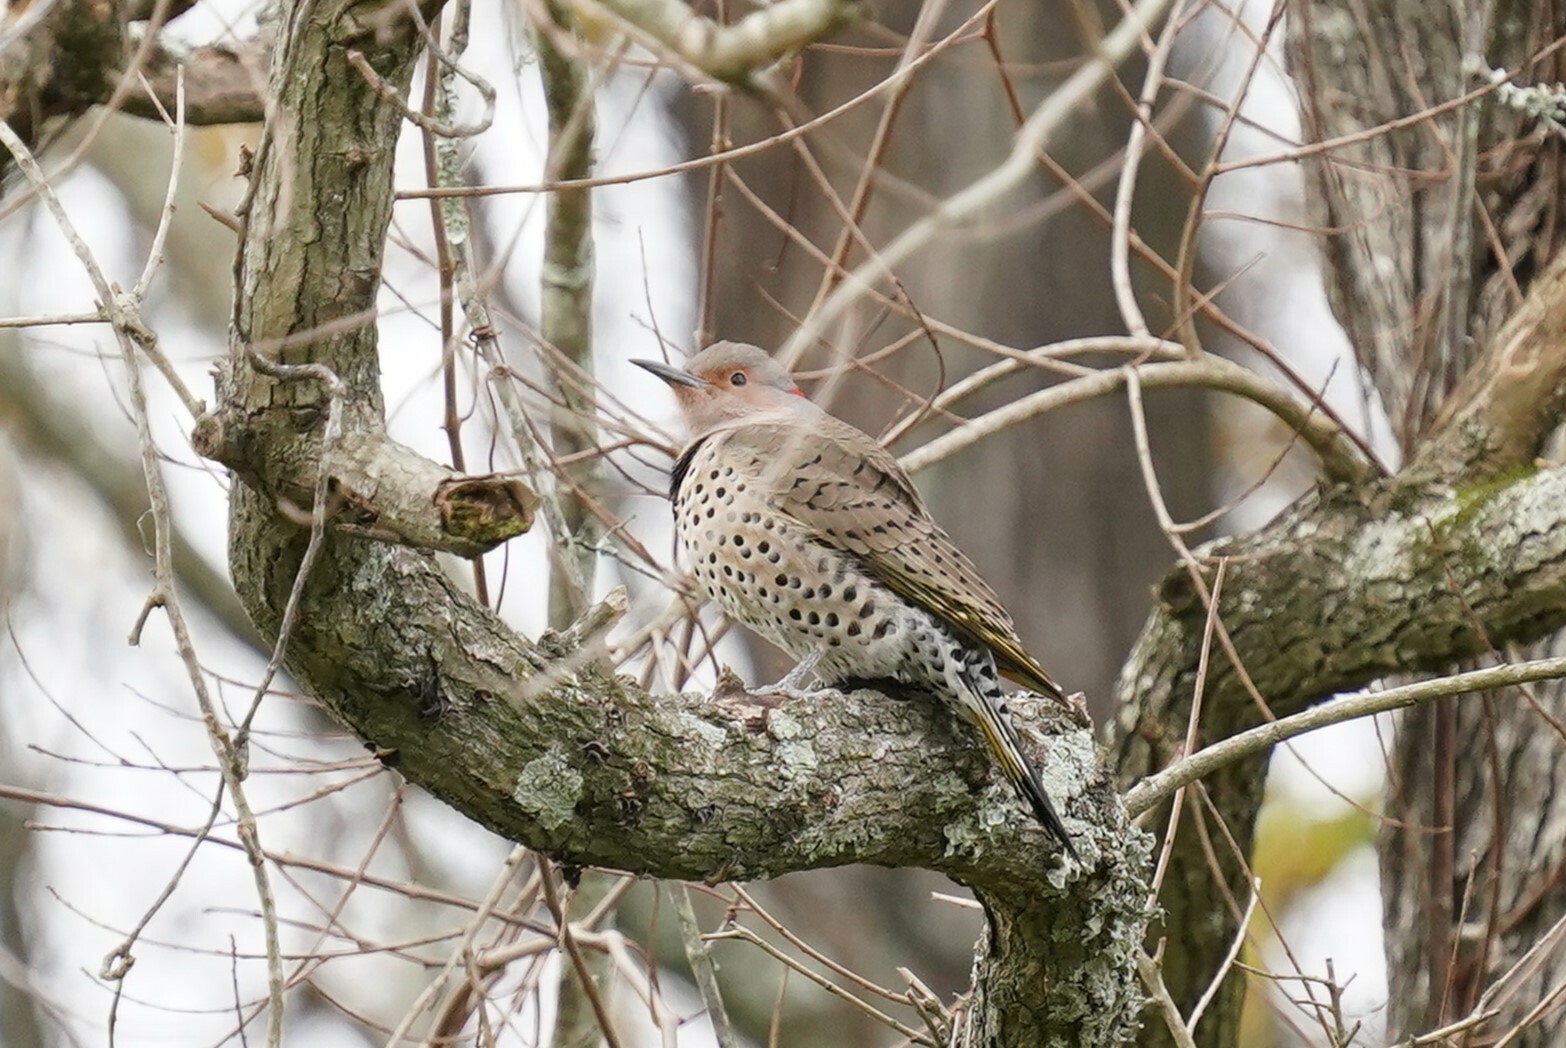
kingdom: Animalia
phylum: Chordata
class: Aves
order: Piciformes
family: Picidae
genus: Colaptes
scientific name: Colaptes auratus
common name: Northern flicker
